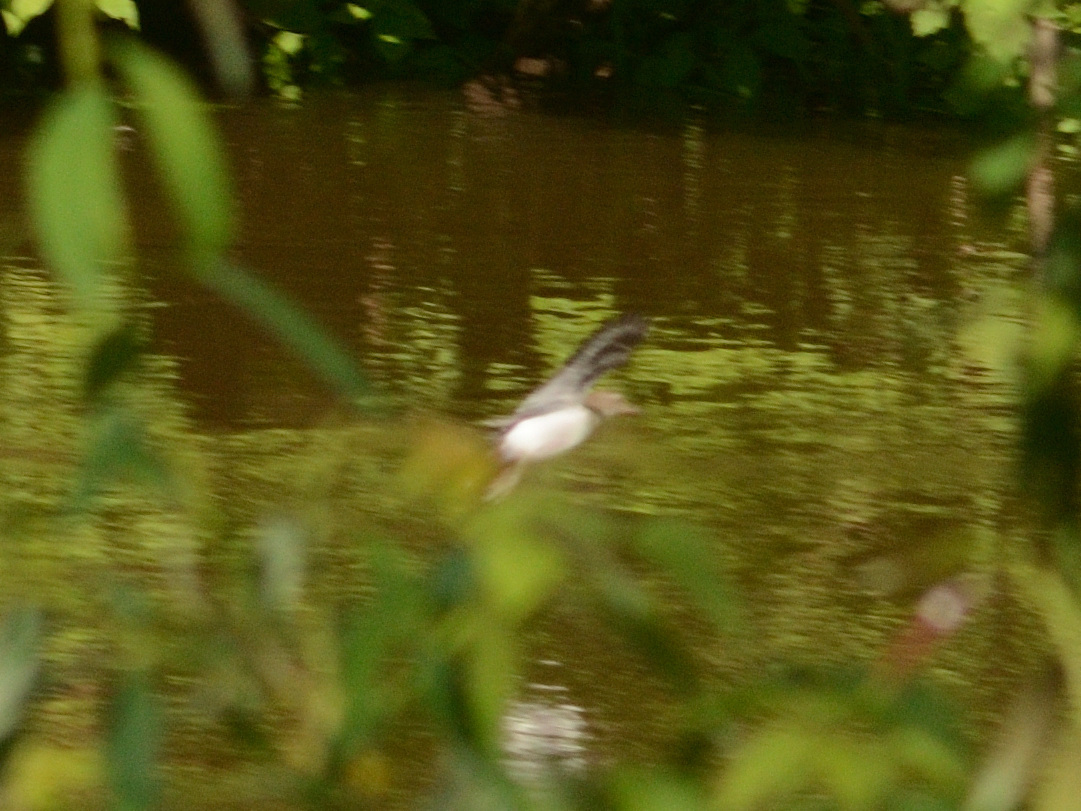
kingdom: Animalia
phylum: Chordata
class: Aves
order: Charadriiformes
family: Scolopacidae
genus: Actitis
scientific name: Actitis hypoleucos
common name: Common sandpiper
